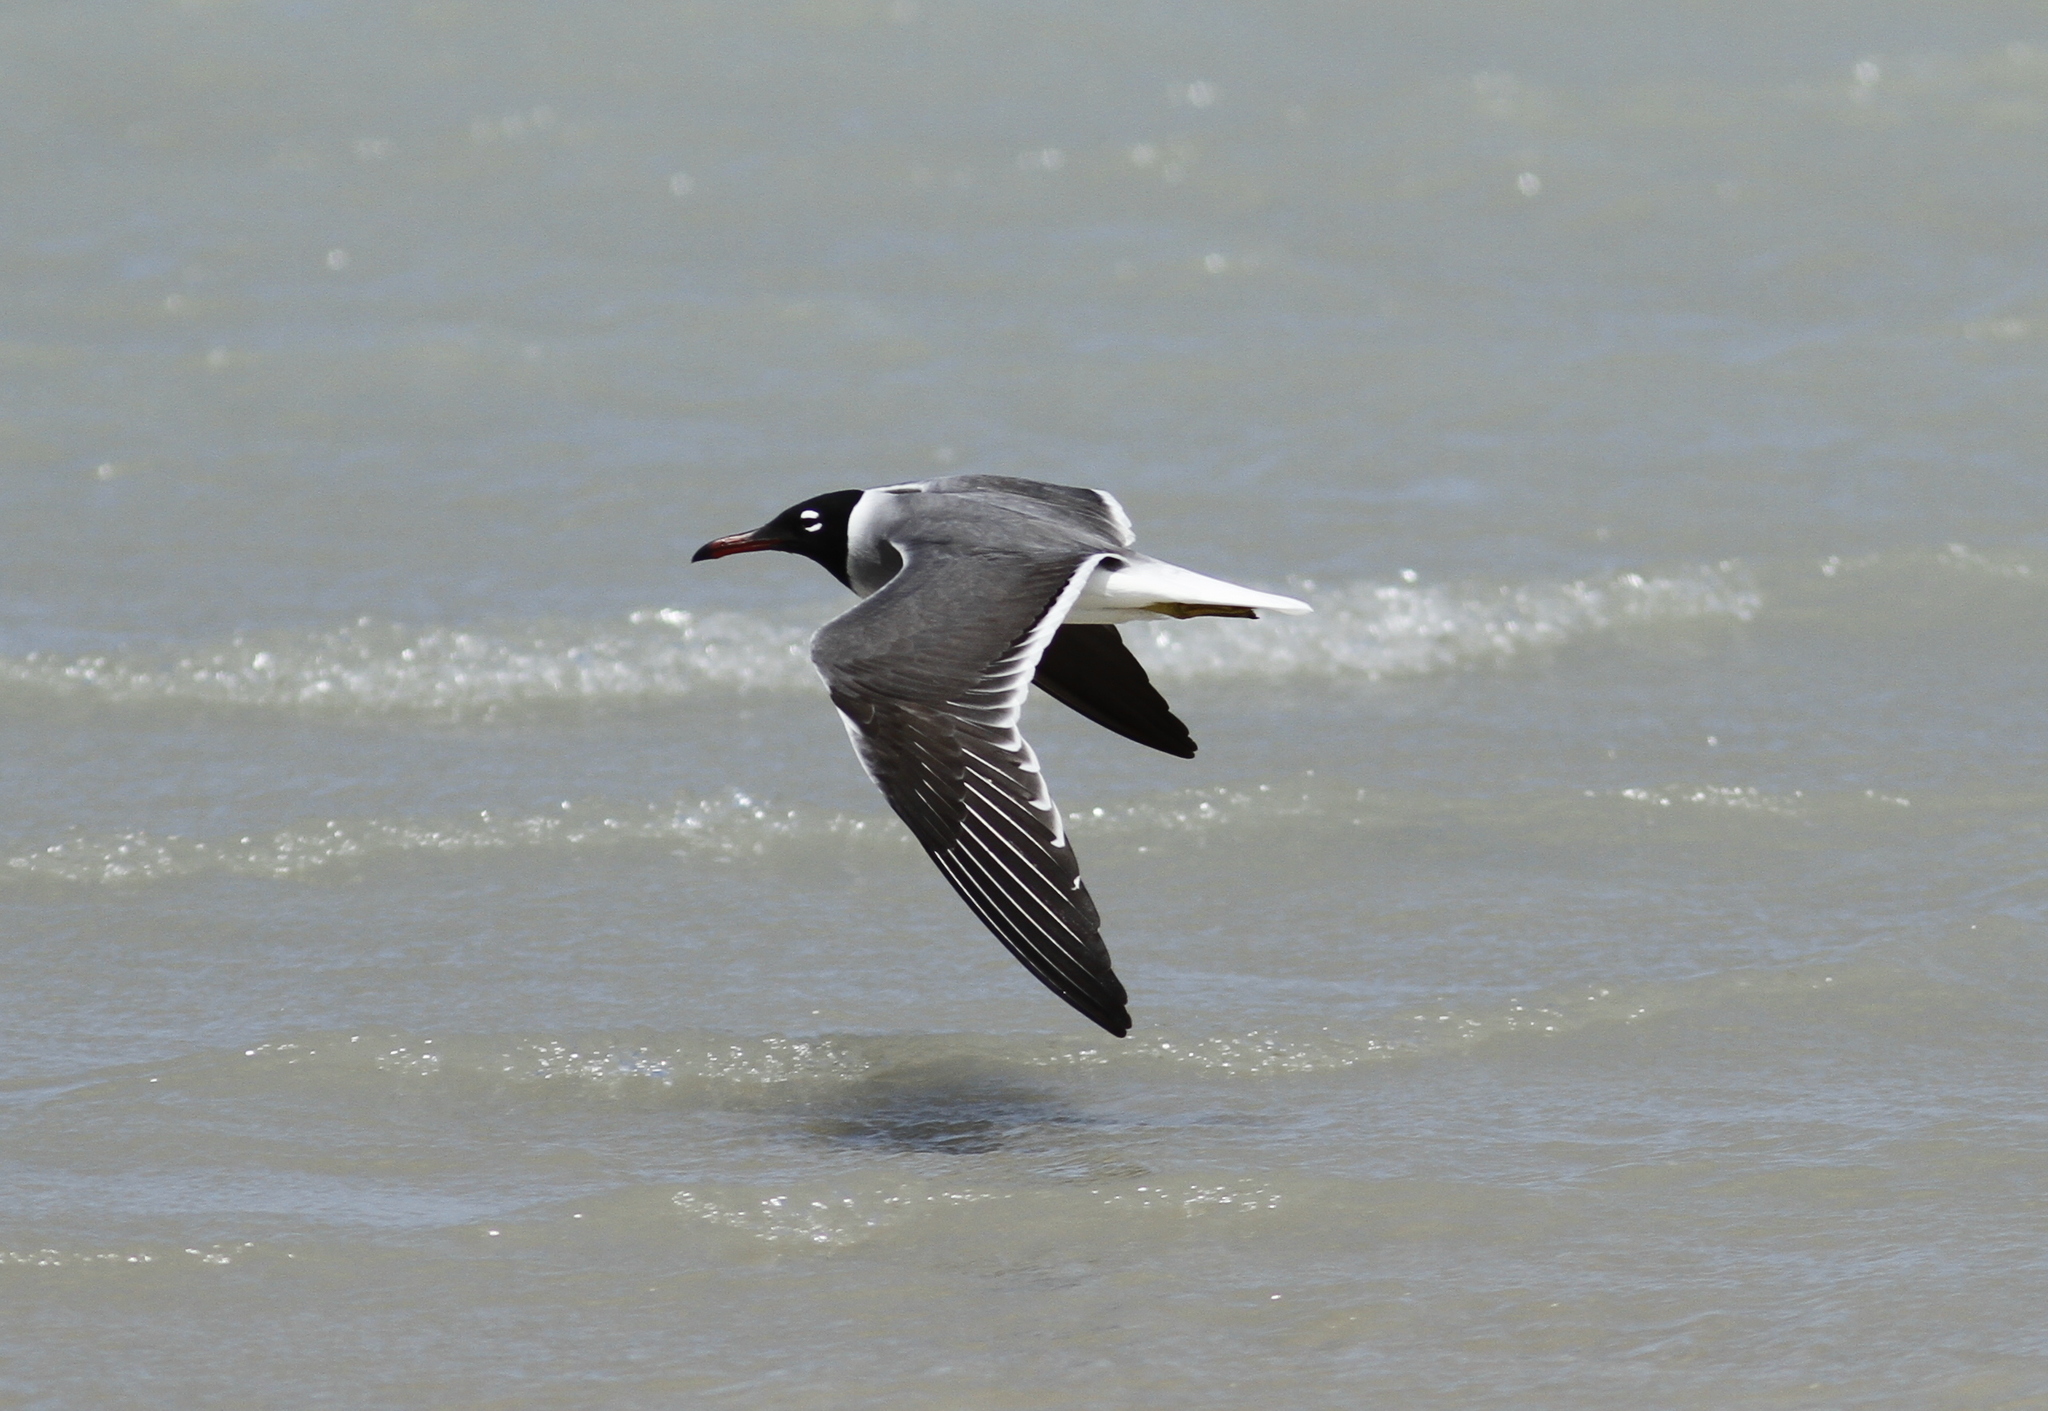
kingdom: Animalia
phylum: Chordata
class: Aves
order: Charadriiformes
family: Laridae
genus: Ichthyaetus
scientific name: Ichthyaetus leucophthalmus
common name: White-eyed gull
